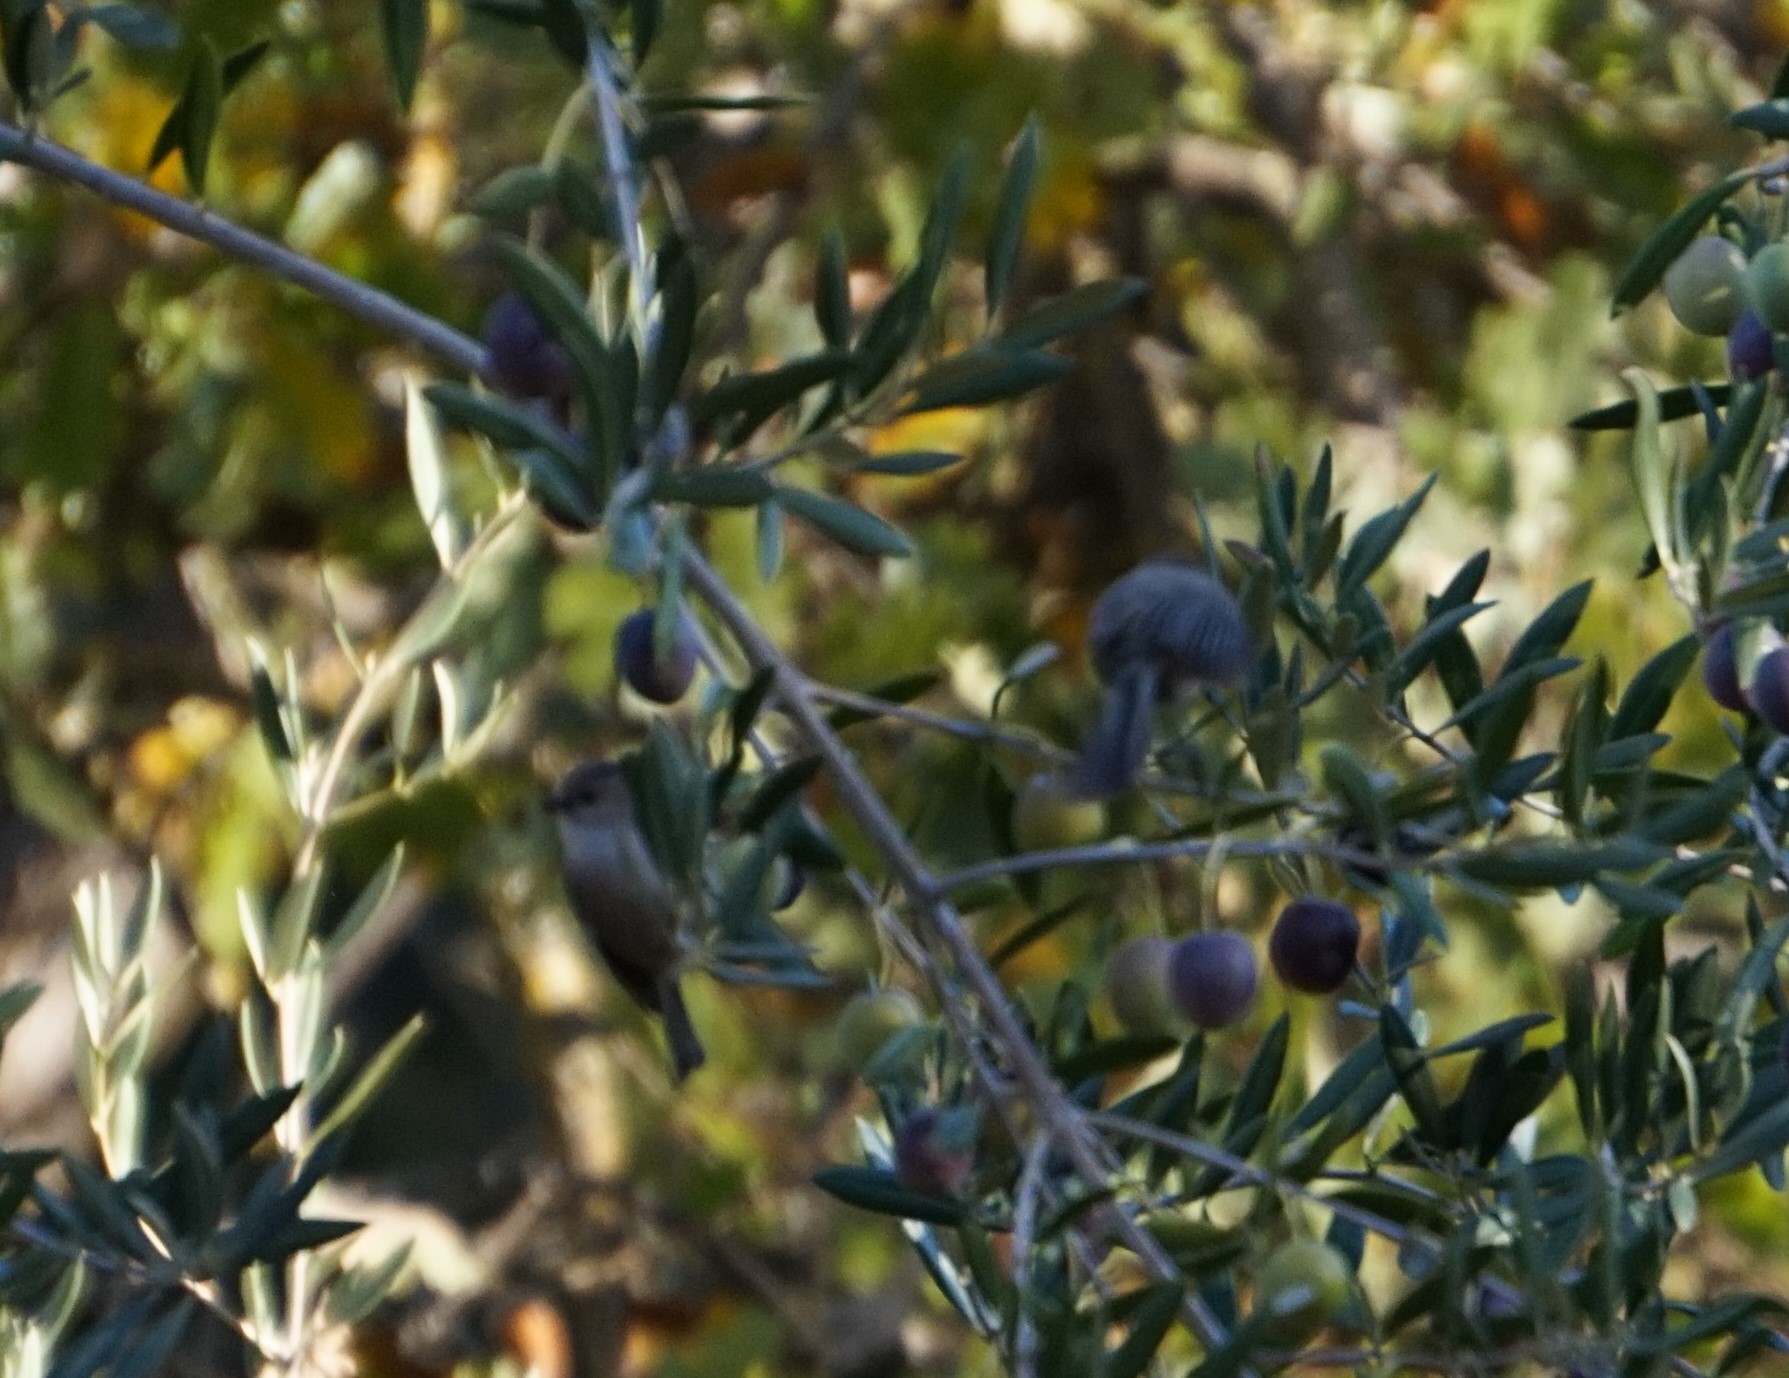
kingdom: Animalia
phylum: Chordata
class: Aves
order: Passeriformes
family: Aegithalidae
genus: Psaltriparus
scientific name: Psaltriparus minimus
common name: American bushtit
